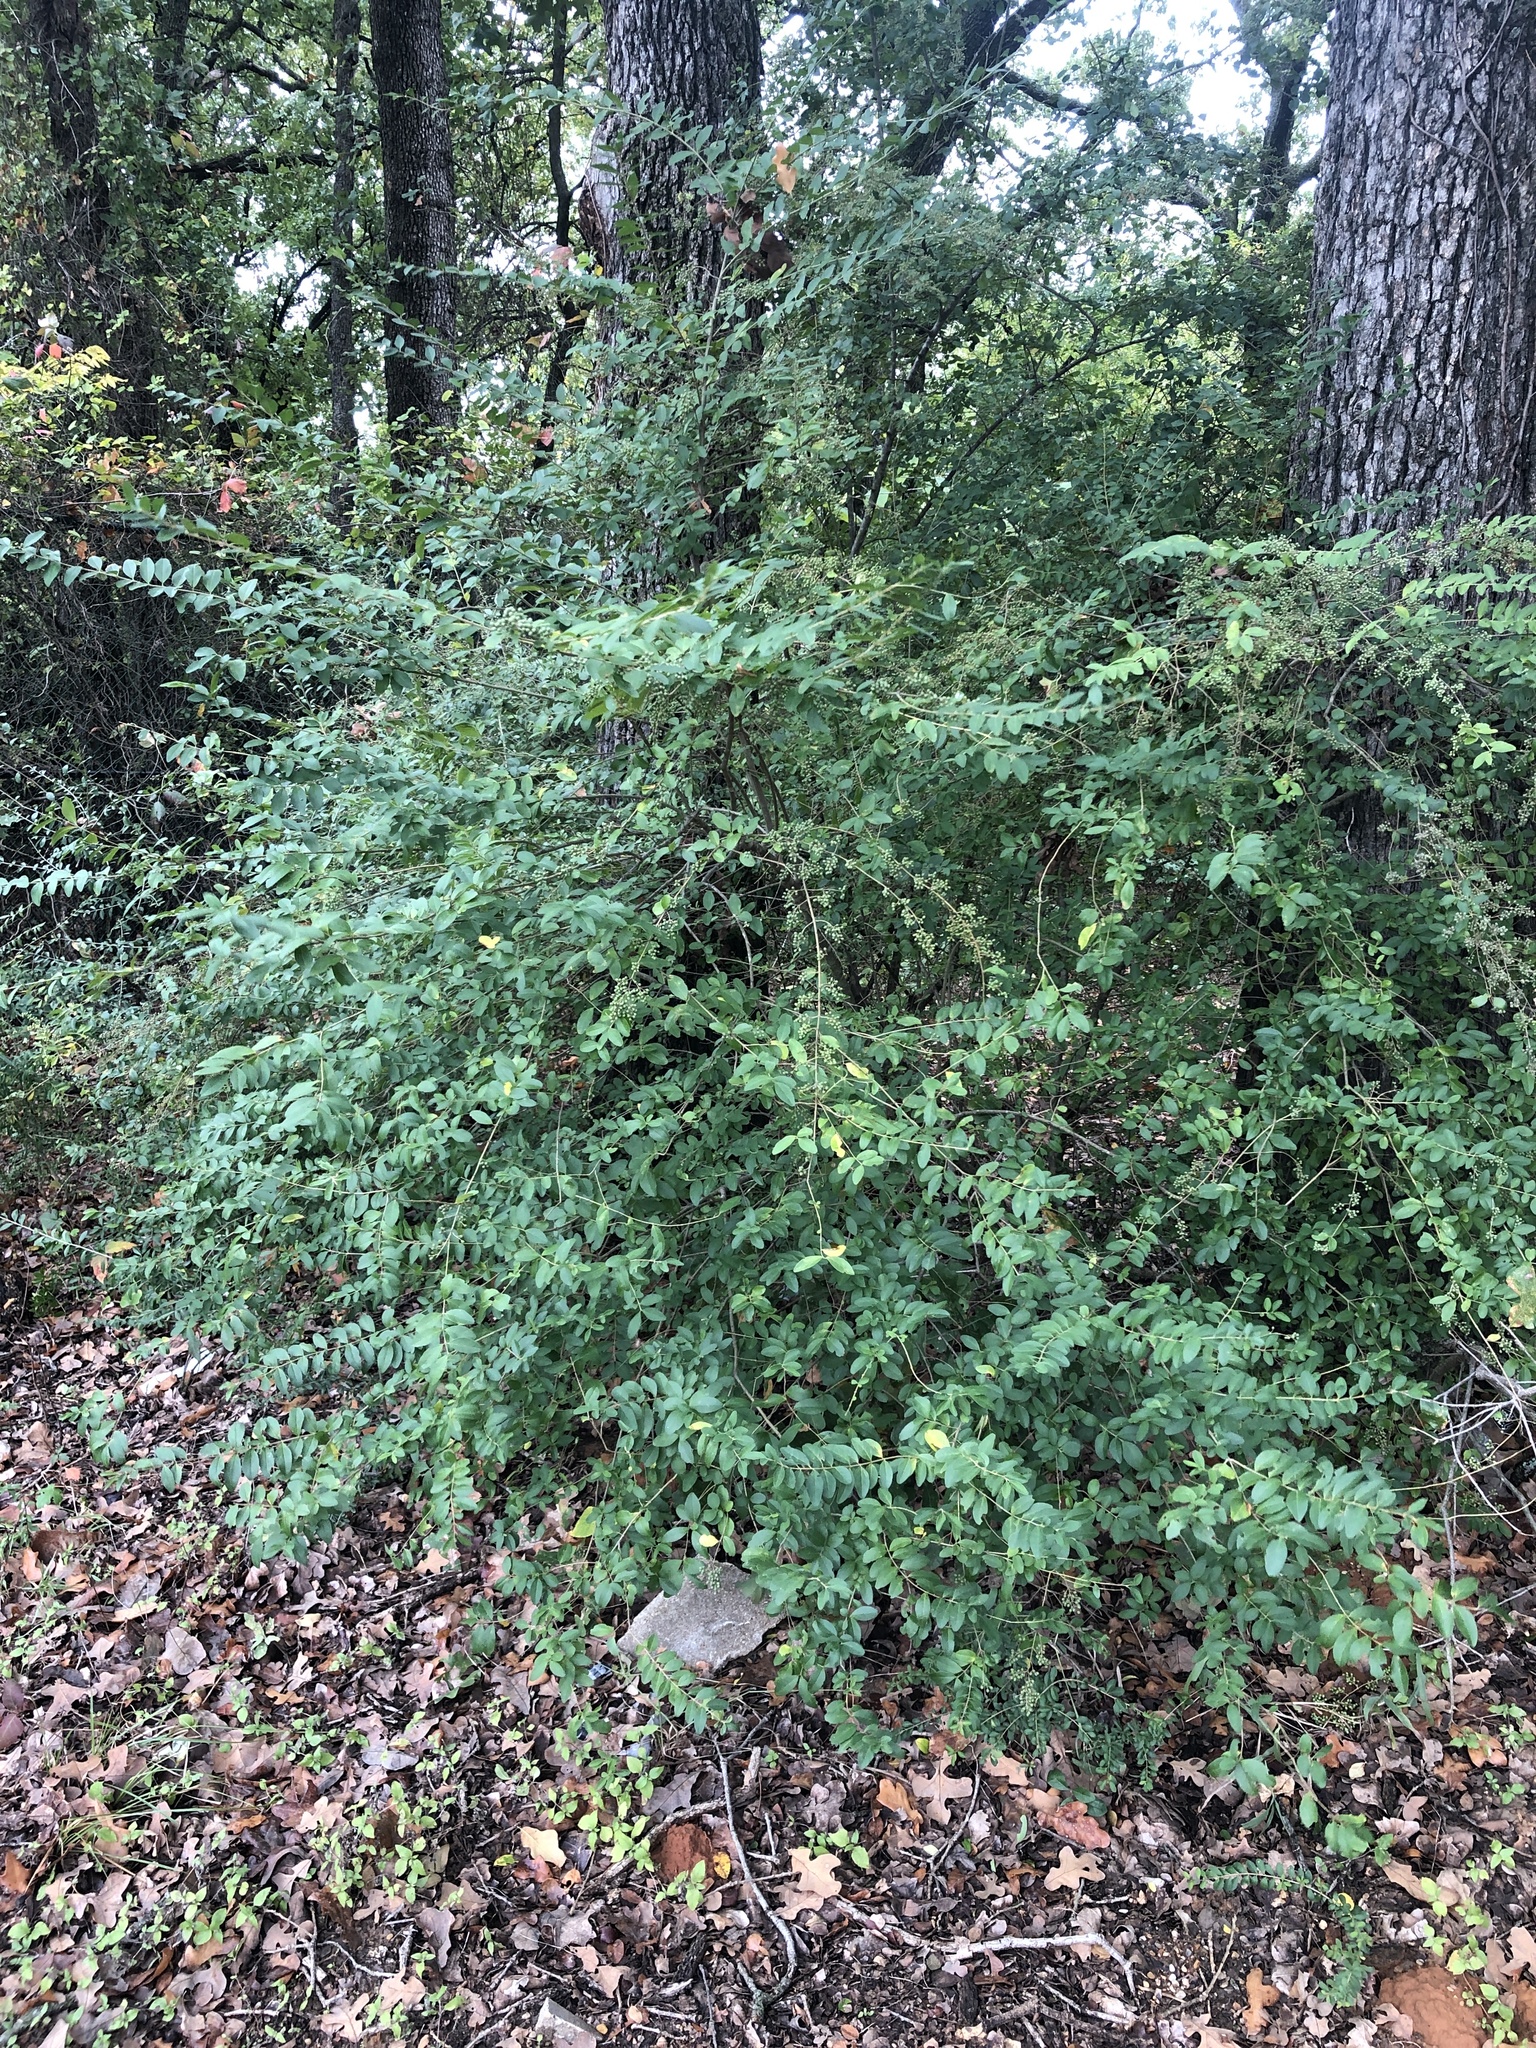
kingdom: Plantae
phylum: Tracheophyta
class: Magnoliopsida
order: Lamiales
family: Oleaceae
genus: Ligustrum
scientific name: Ligustrum sinense
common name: Chinese privet
